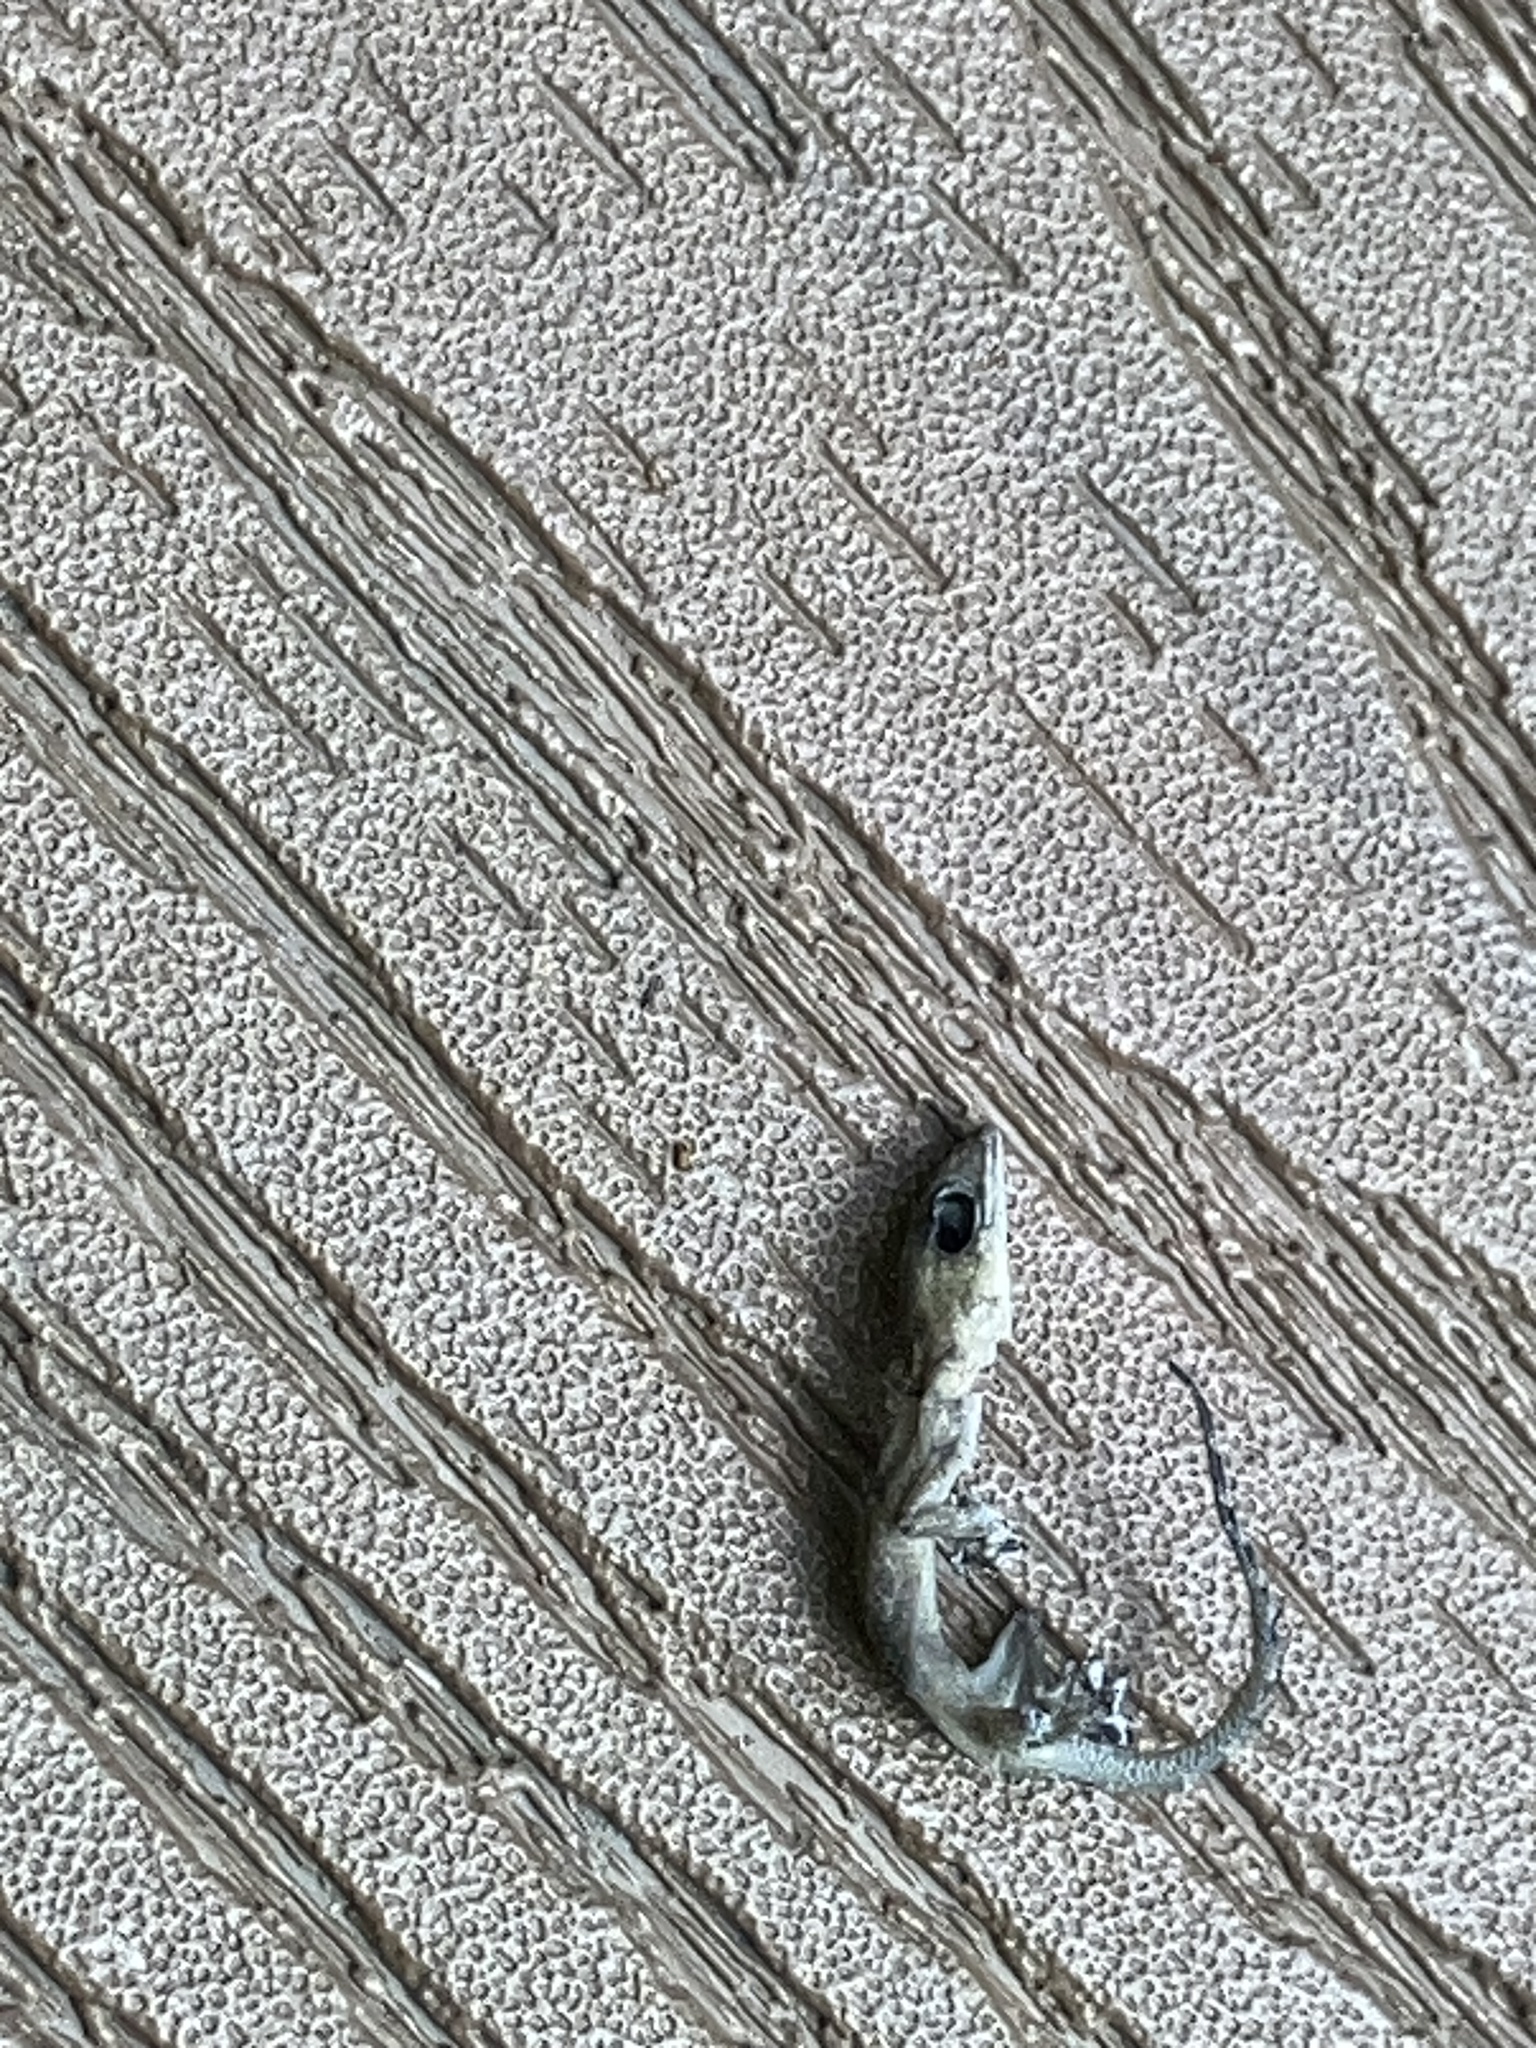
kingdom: Animalia
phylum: Chordata
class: Squamata
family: Gekkonidae
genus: Hemidactylus
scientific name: Hemidactylus mabouia
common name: House gecko
